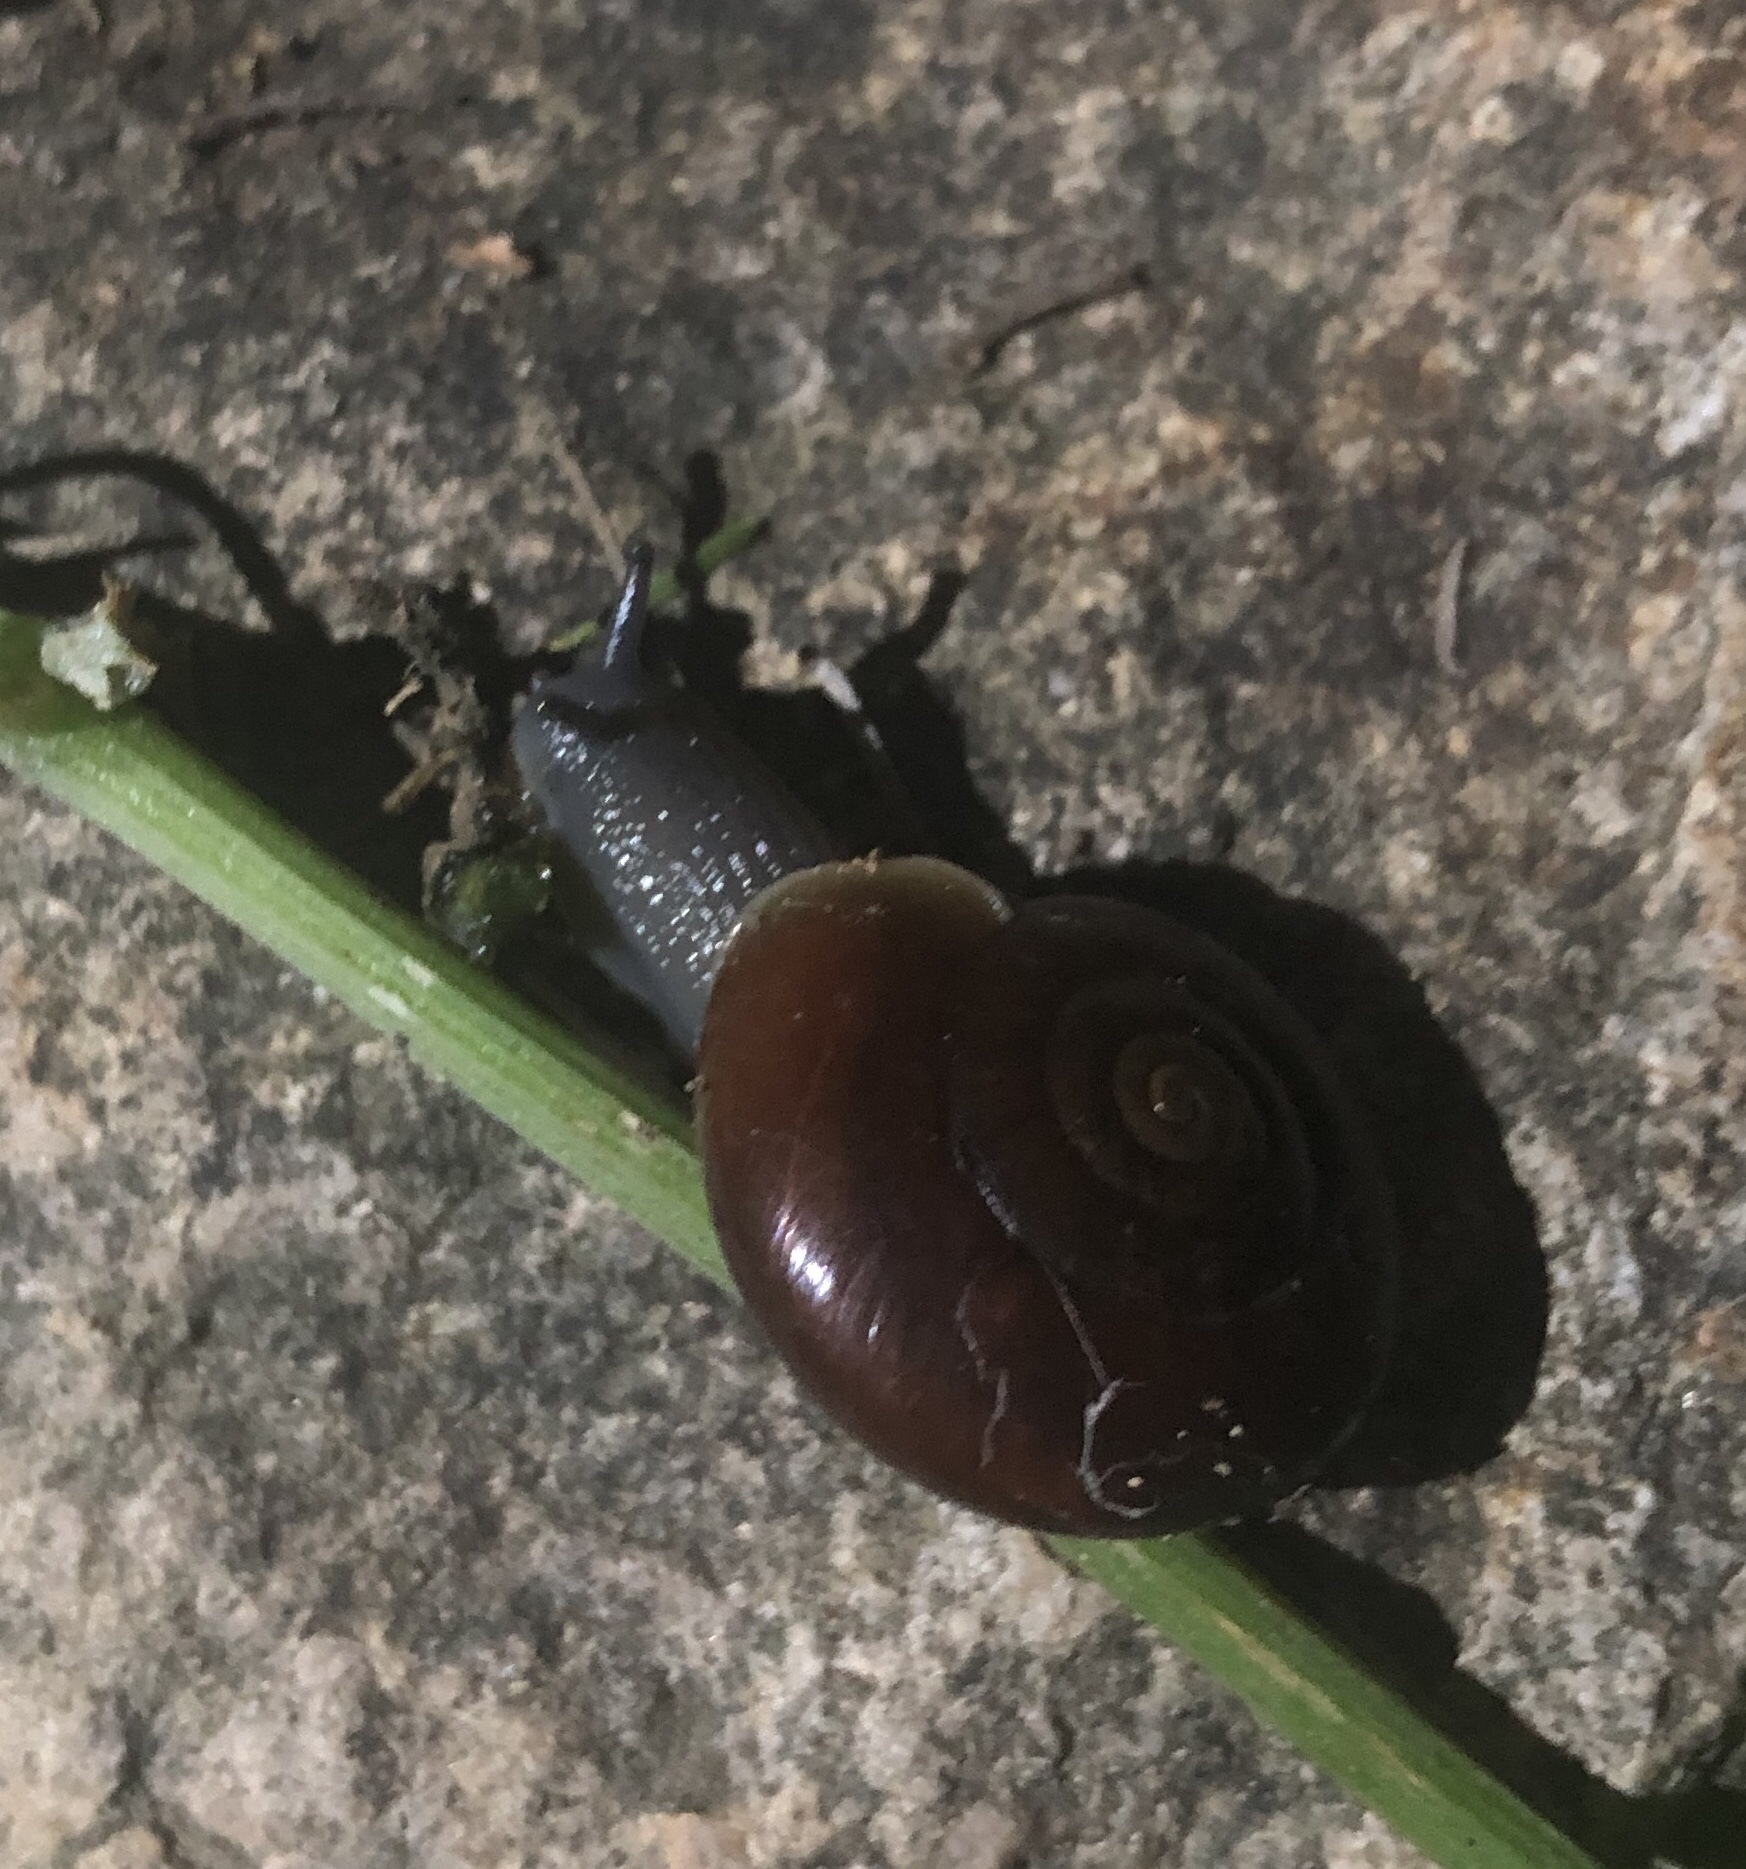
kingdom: Animalia
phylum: Mollusca
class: Gastropoda
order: Stylommatophora
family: Megomphicidae
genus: Glyptostoma
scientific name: Glyptostoma newberryanum
